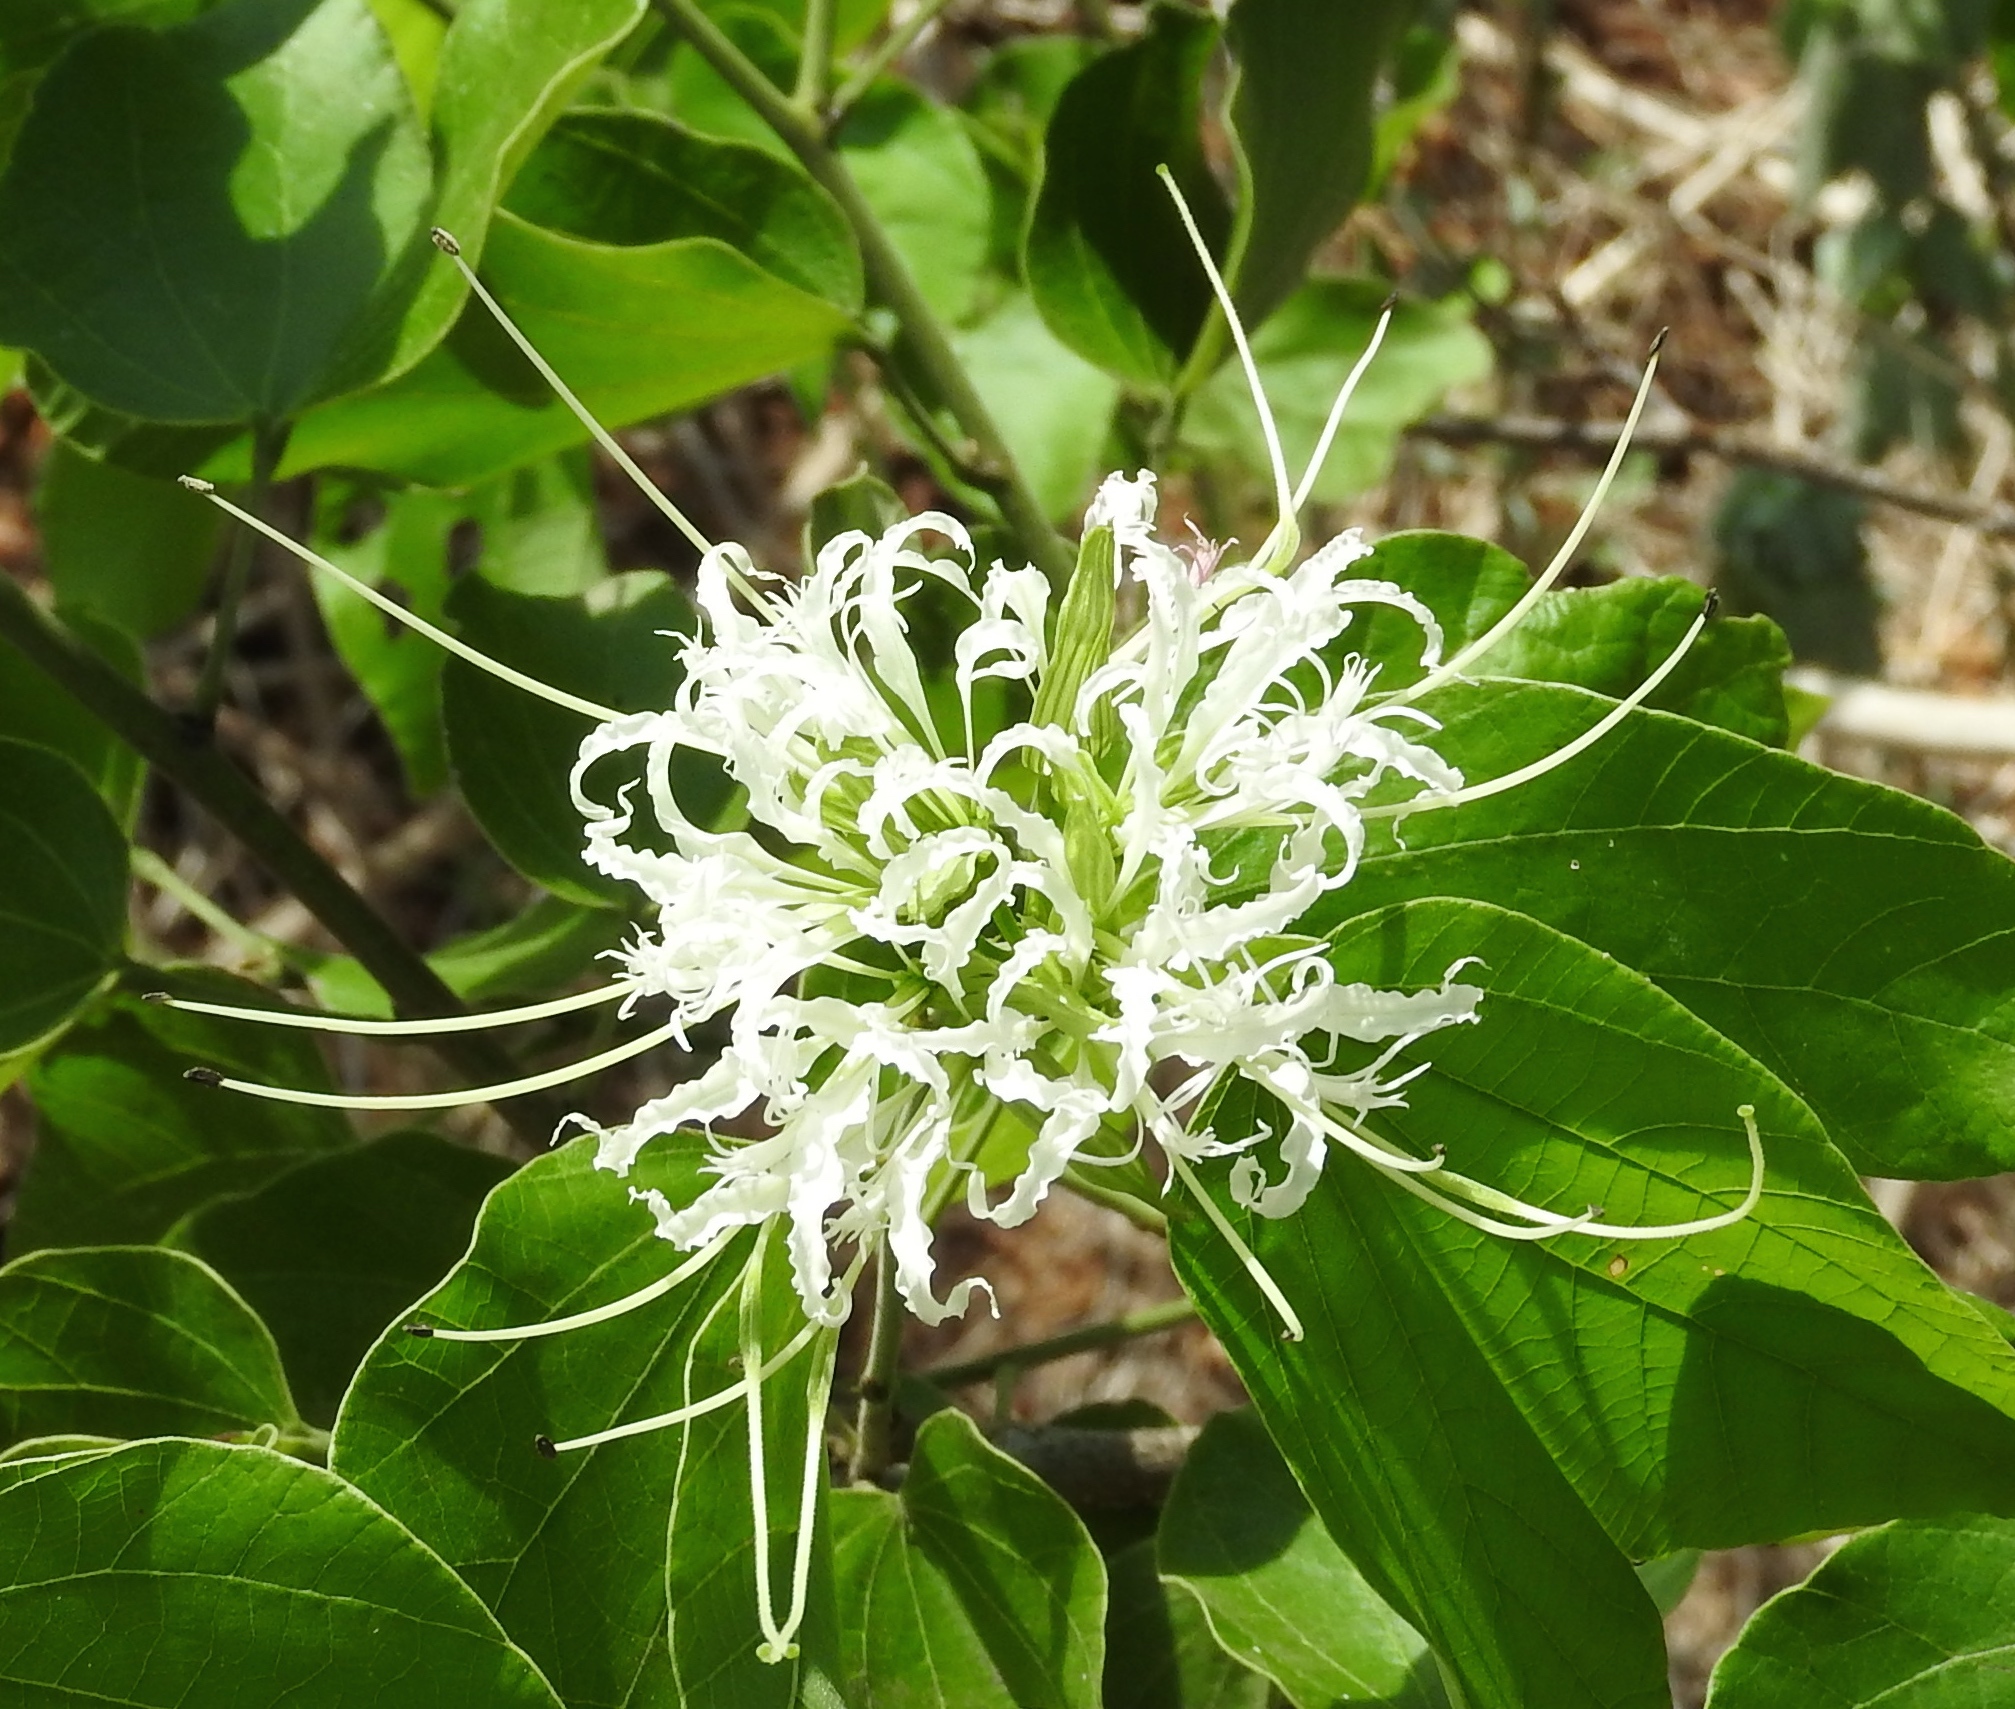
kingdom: Plantae
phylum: Tracheophyta
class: Magnoliopsida
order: Fabales
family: Fabaceae
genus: Bauhinia
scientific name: Bauhinia divaricata
